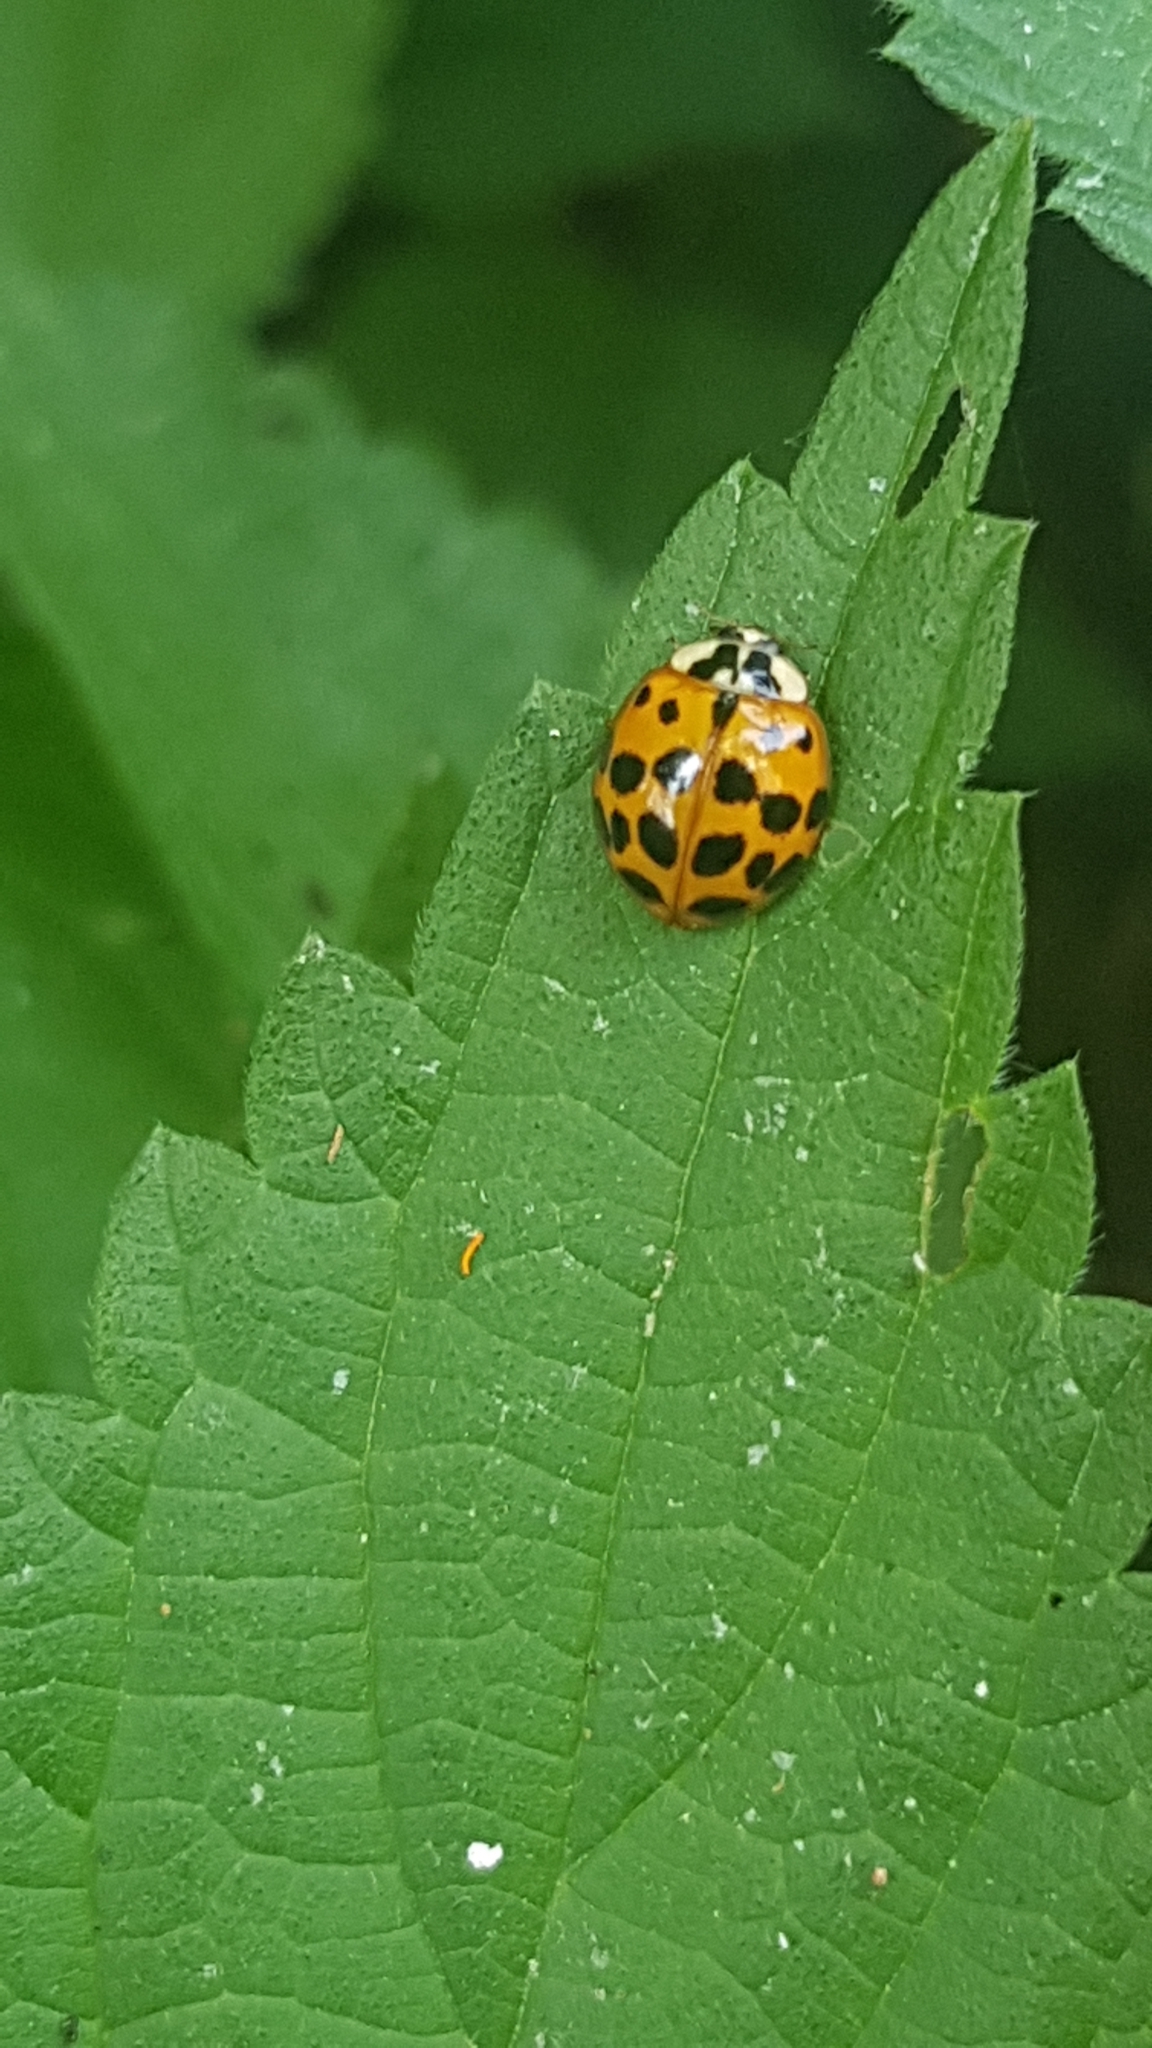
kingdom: Animalia
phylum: Arthropoda
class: Insecta
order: Coleoptera
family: Coccinellidae
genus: Harmonia
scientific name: Harmonia axyridis
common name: Harlequin ladybird
